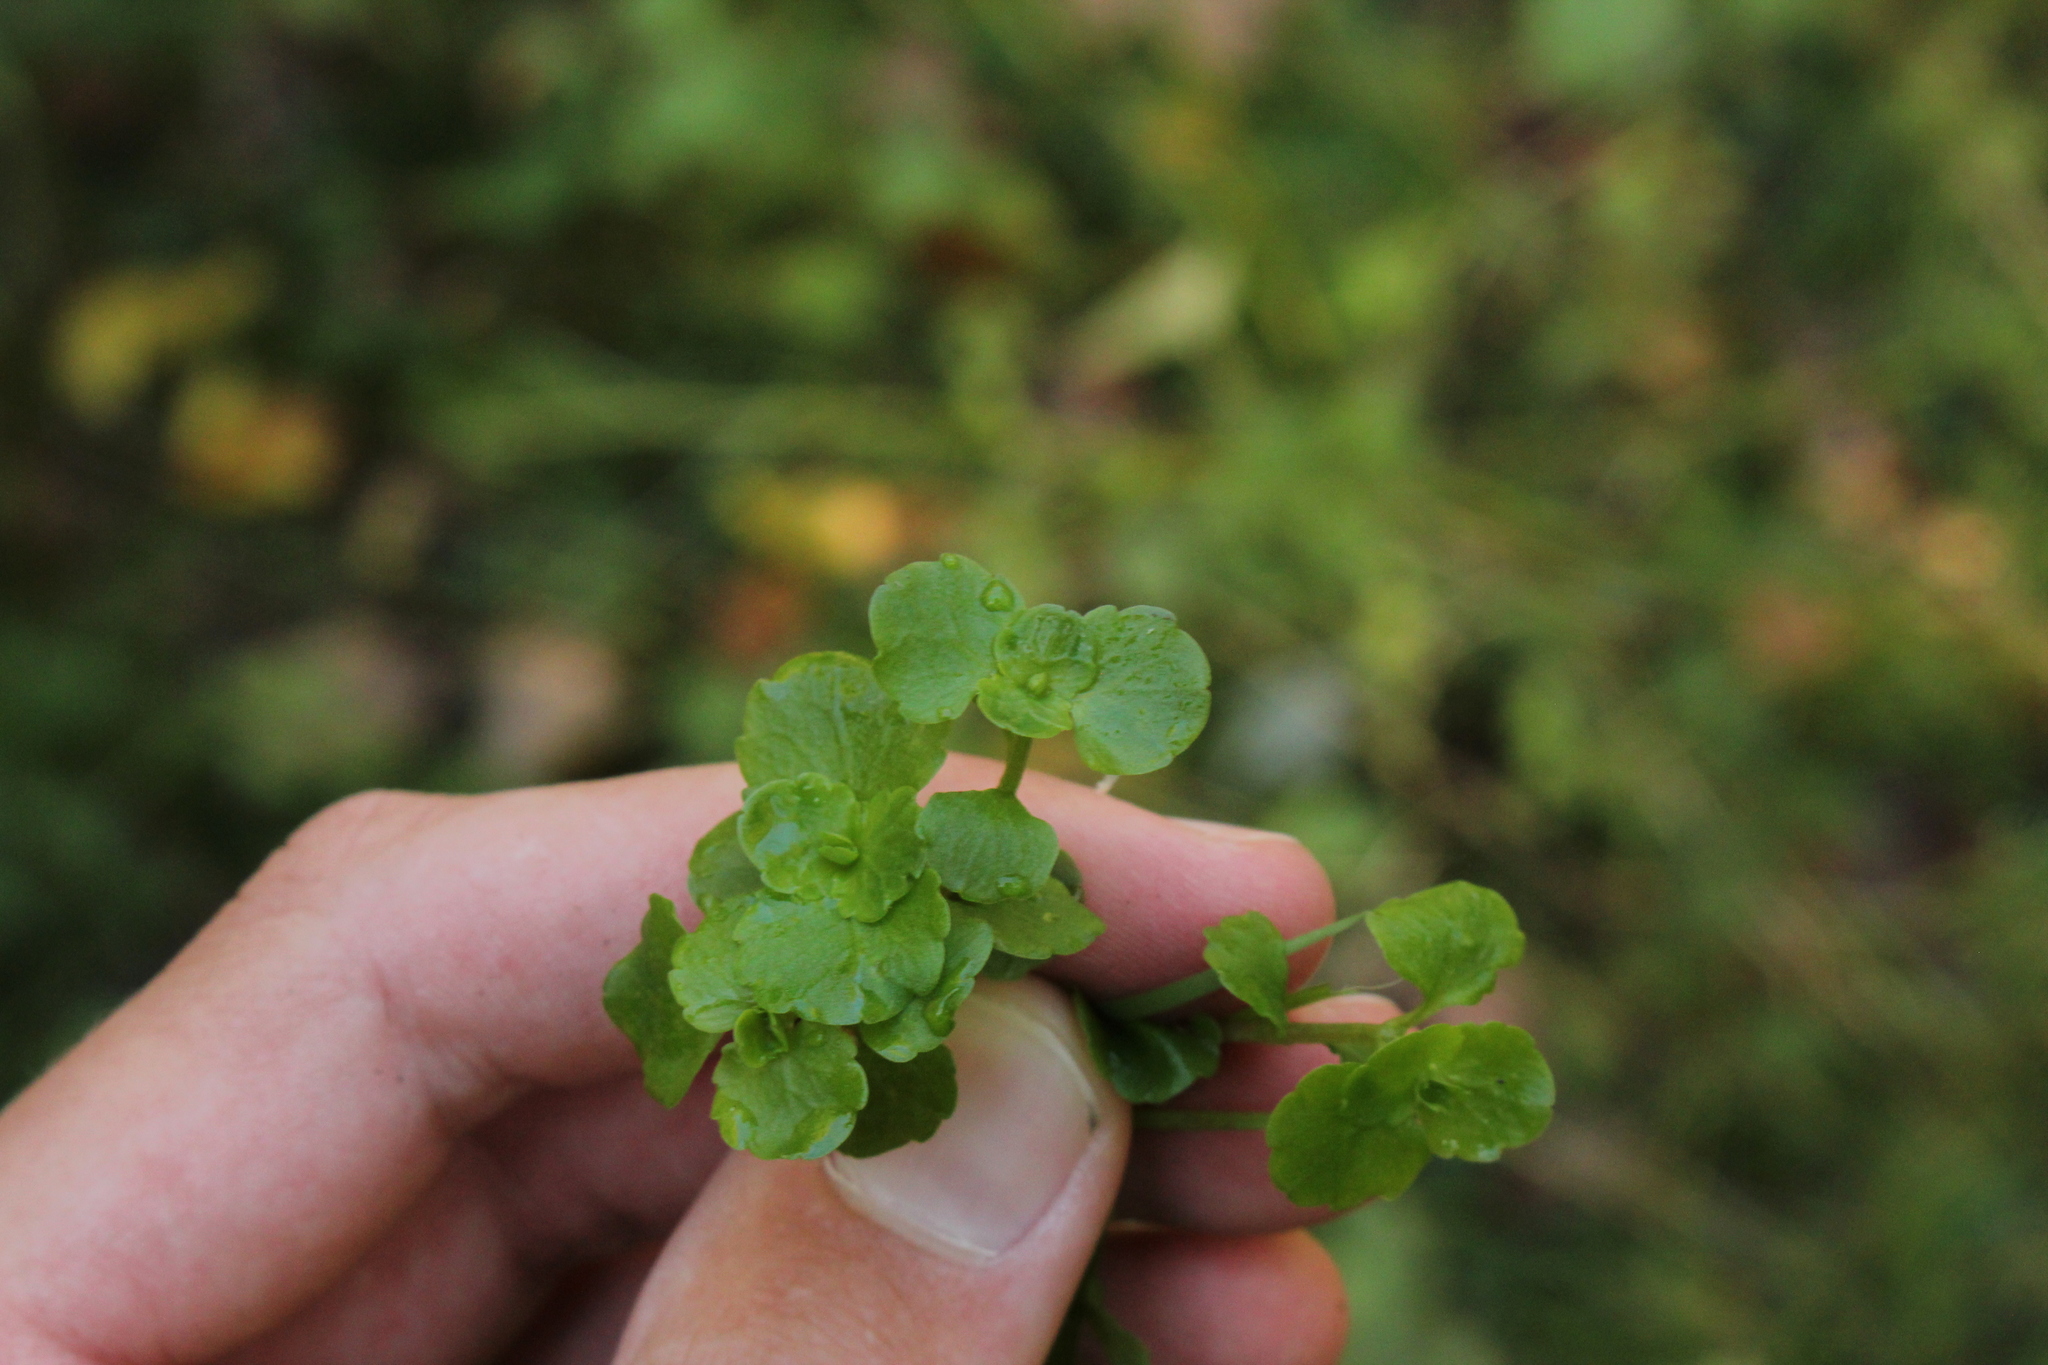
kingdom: Plantae
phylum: Tracheophyta
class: Magnoliopsida
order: Saxifragales
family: Saxifragaceae
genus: Chrysosplenium
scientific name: Chrysosplenium americanum
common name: American golden-saxifrage
